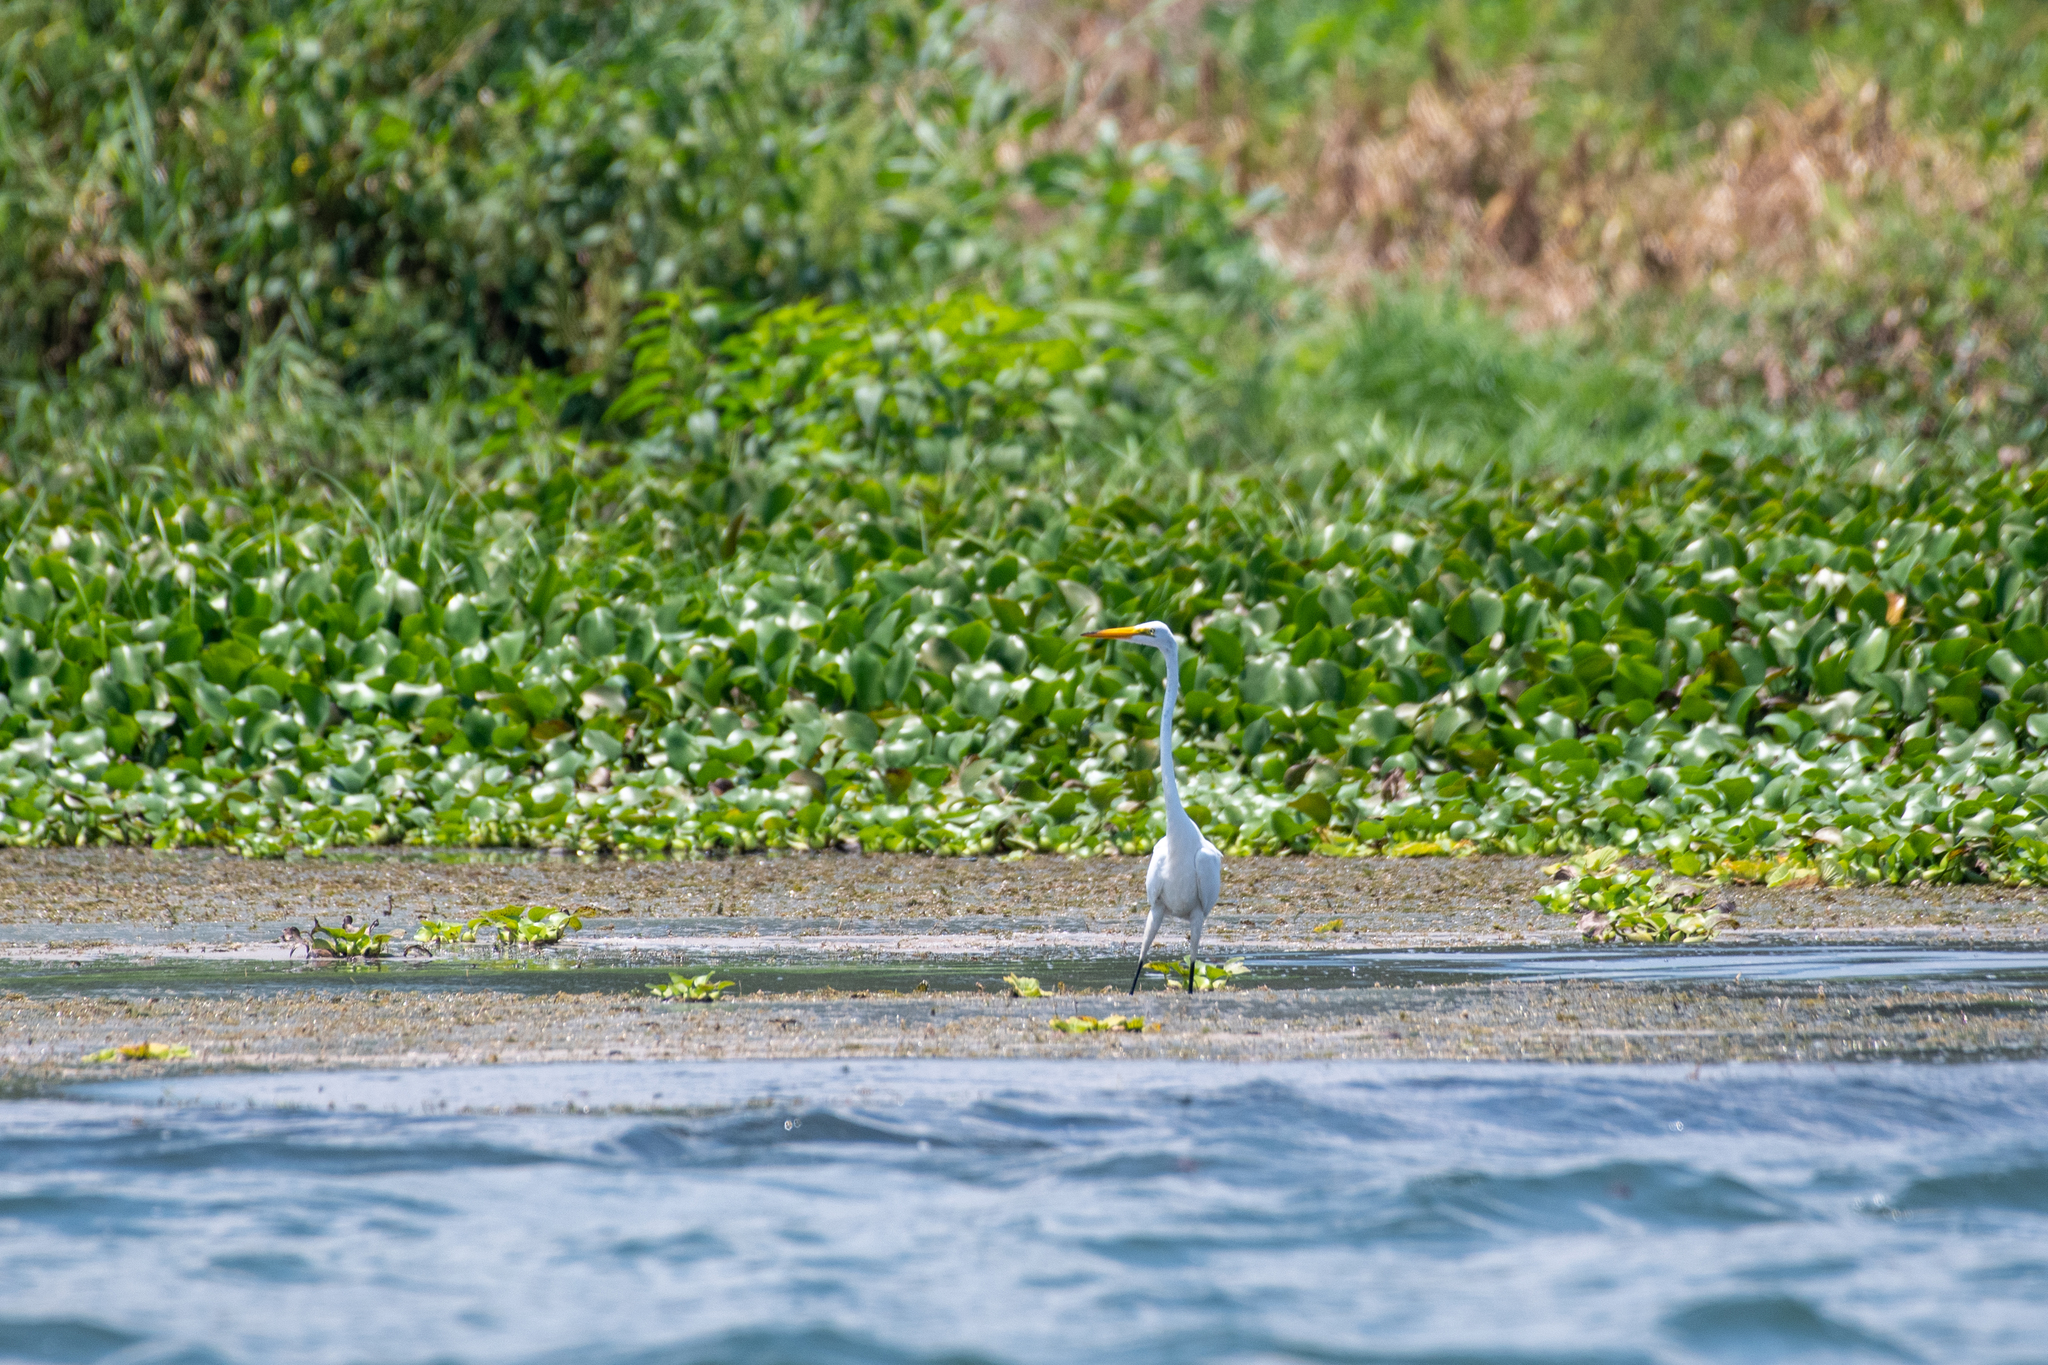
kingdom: Animalia
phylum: Chordata
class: Aves
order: Pelecaniformes
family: Ardeidae
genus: Ardea
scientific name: Ardea alba
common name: Great egret
